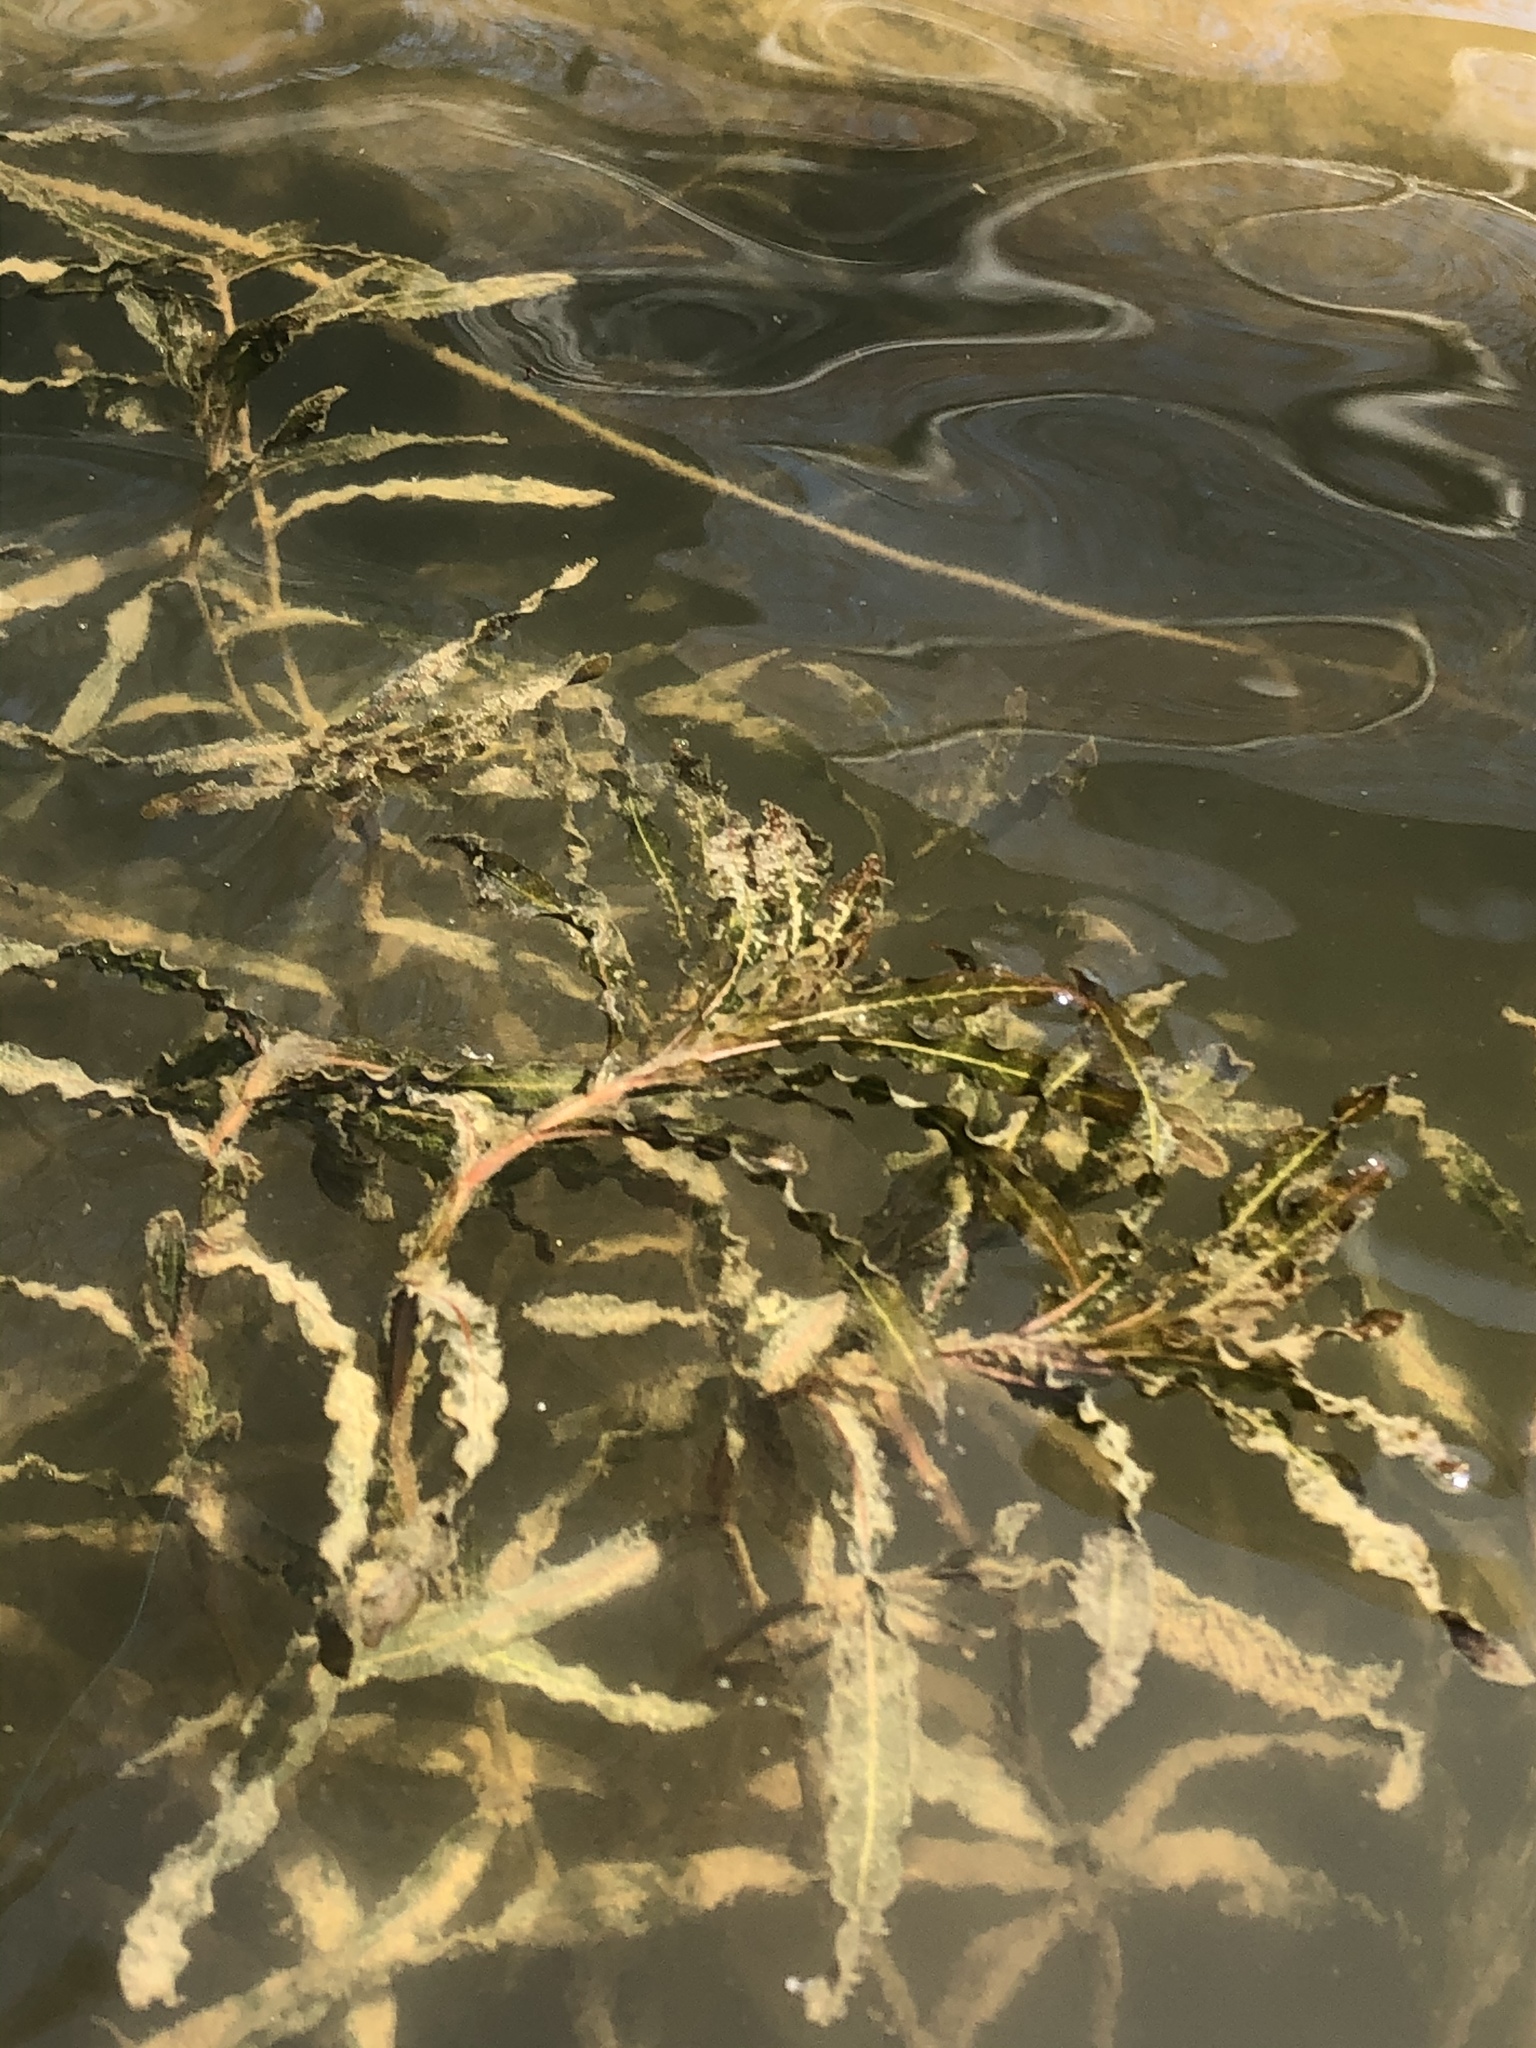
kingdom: Plantae
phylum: Tracheophyta
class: Liliopsida
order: Alismatales
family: Potamogetonaceae
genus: Potamogeton
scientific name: Potamogeton crispus
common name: Curled pondweed
